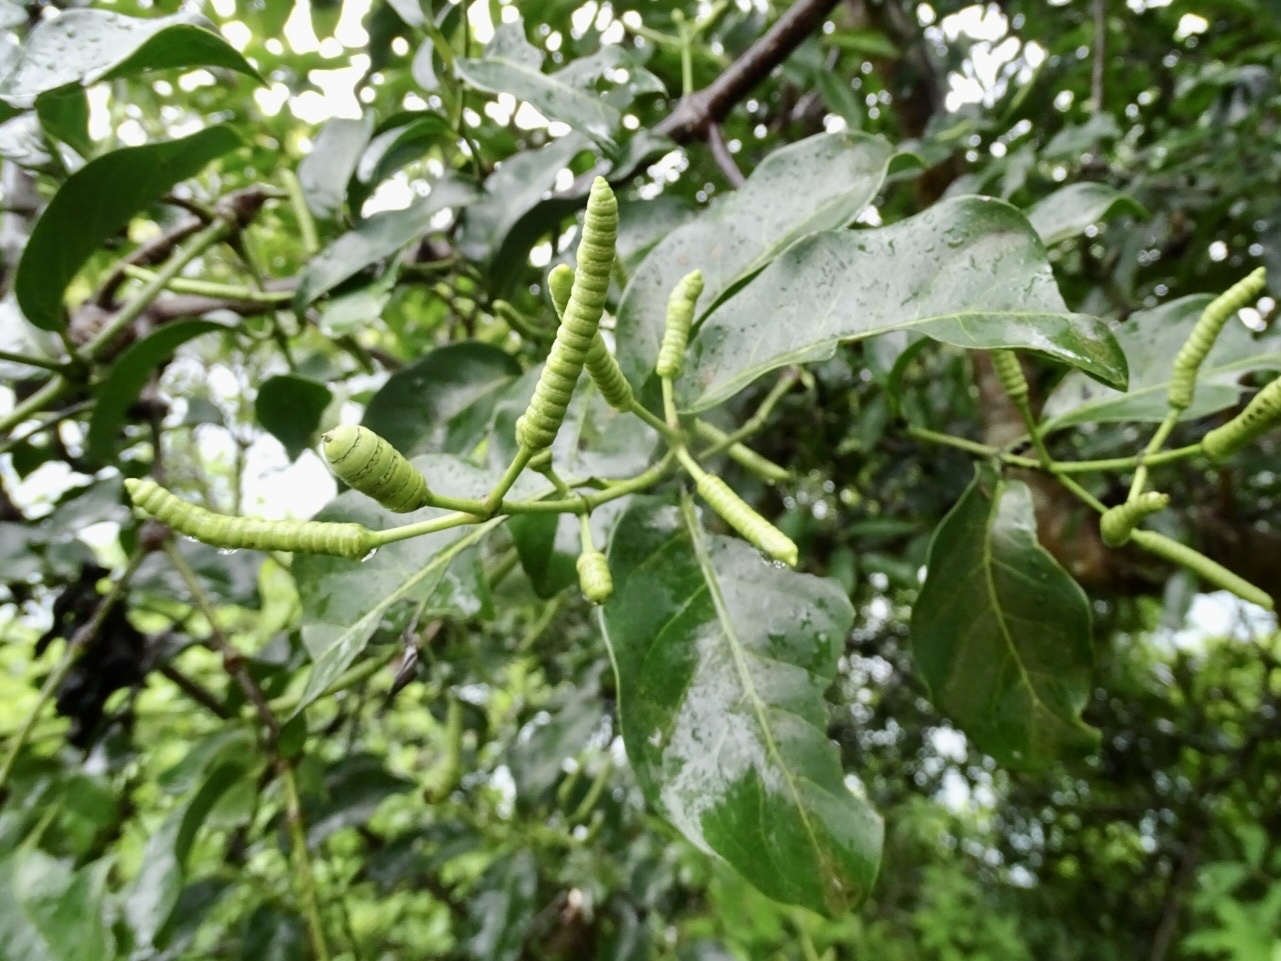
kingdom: Plantae
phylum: Tracheophyta
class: Gnetopsida
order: Gnetales
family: Gnetaceae
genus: Gnetum
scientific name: Gnetum luofuense
